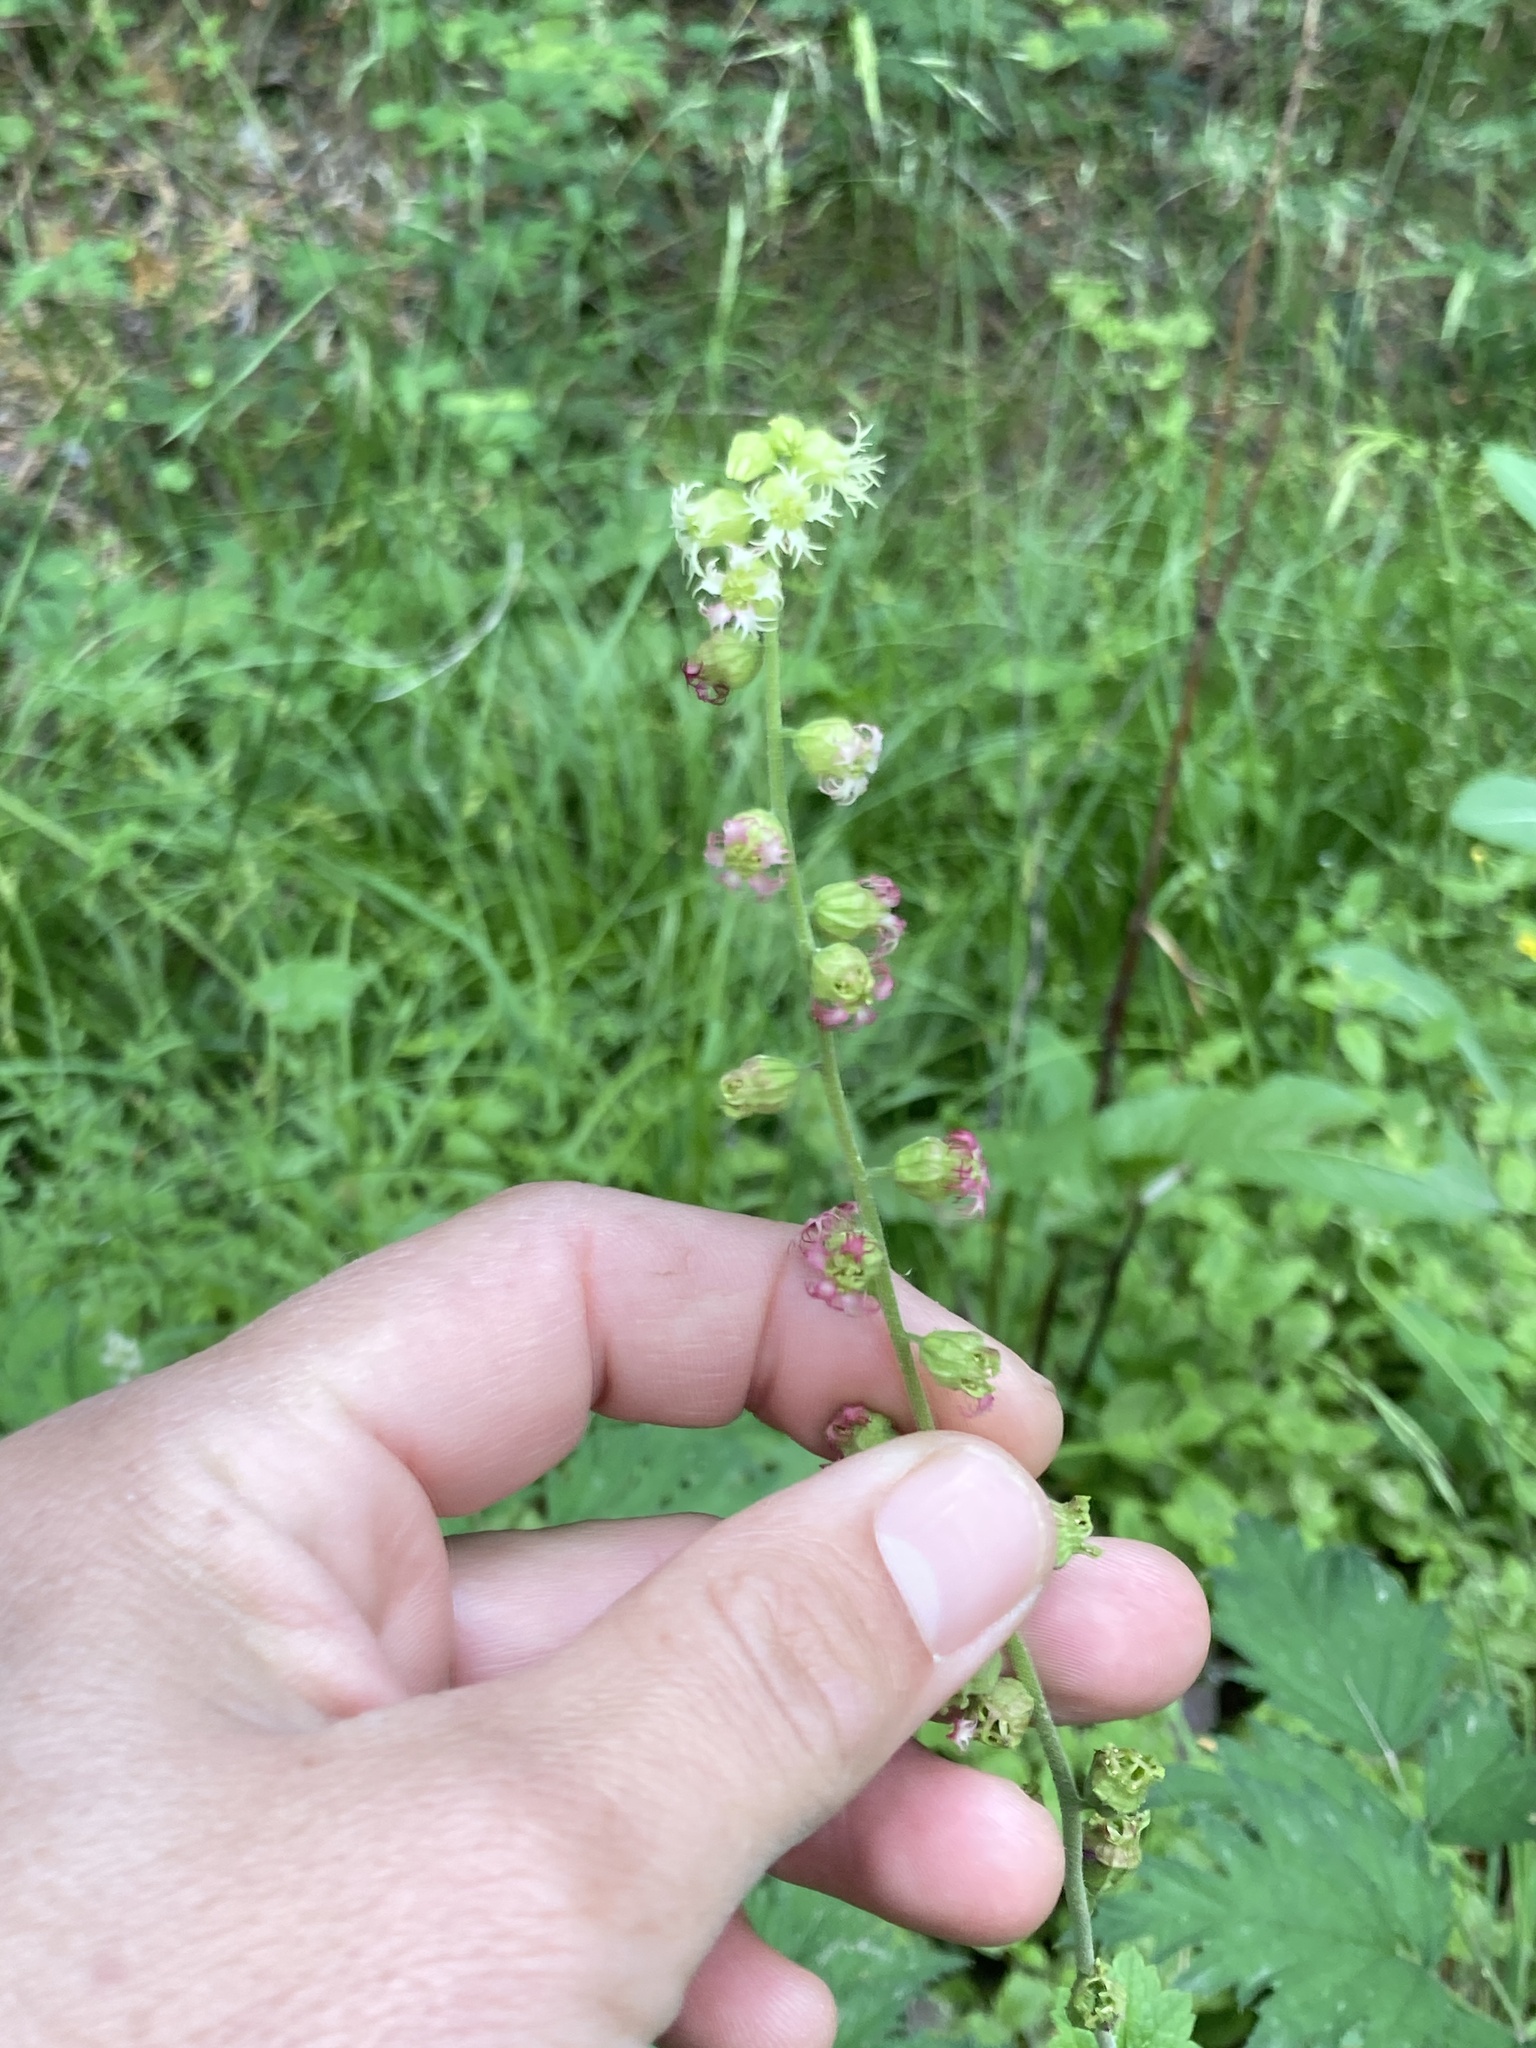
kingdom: Plantae
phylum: Tracheophyta
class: Magnoliopsida
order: Saxifragales
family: Saxifragaceae
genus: Tellima
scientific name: Tellima grandiflora
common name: Fringecups
